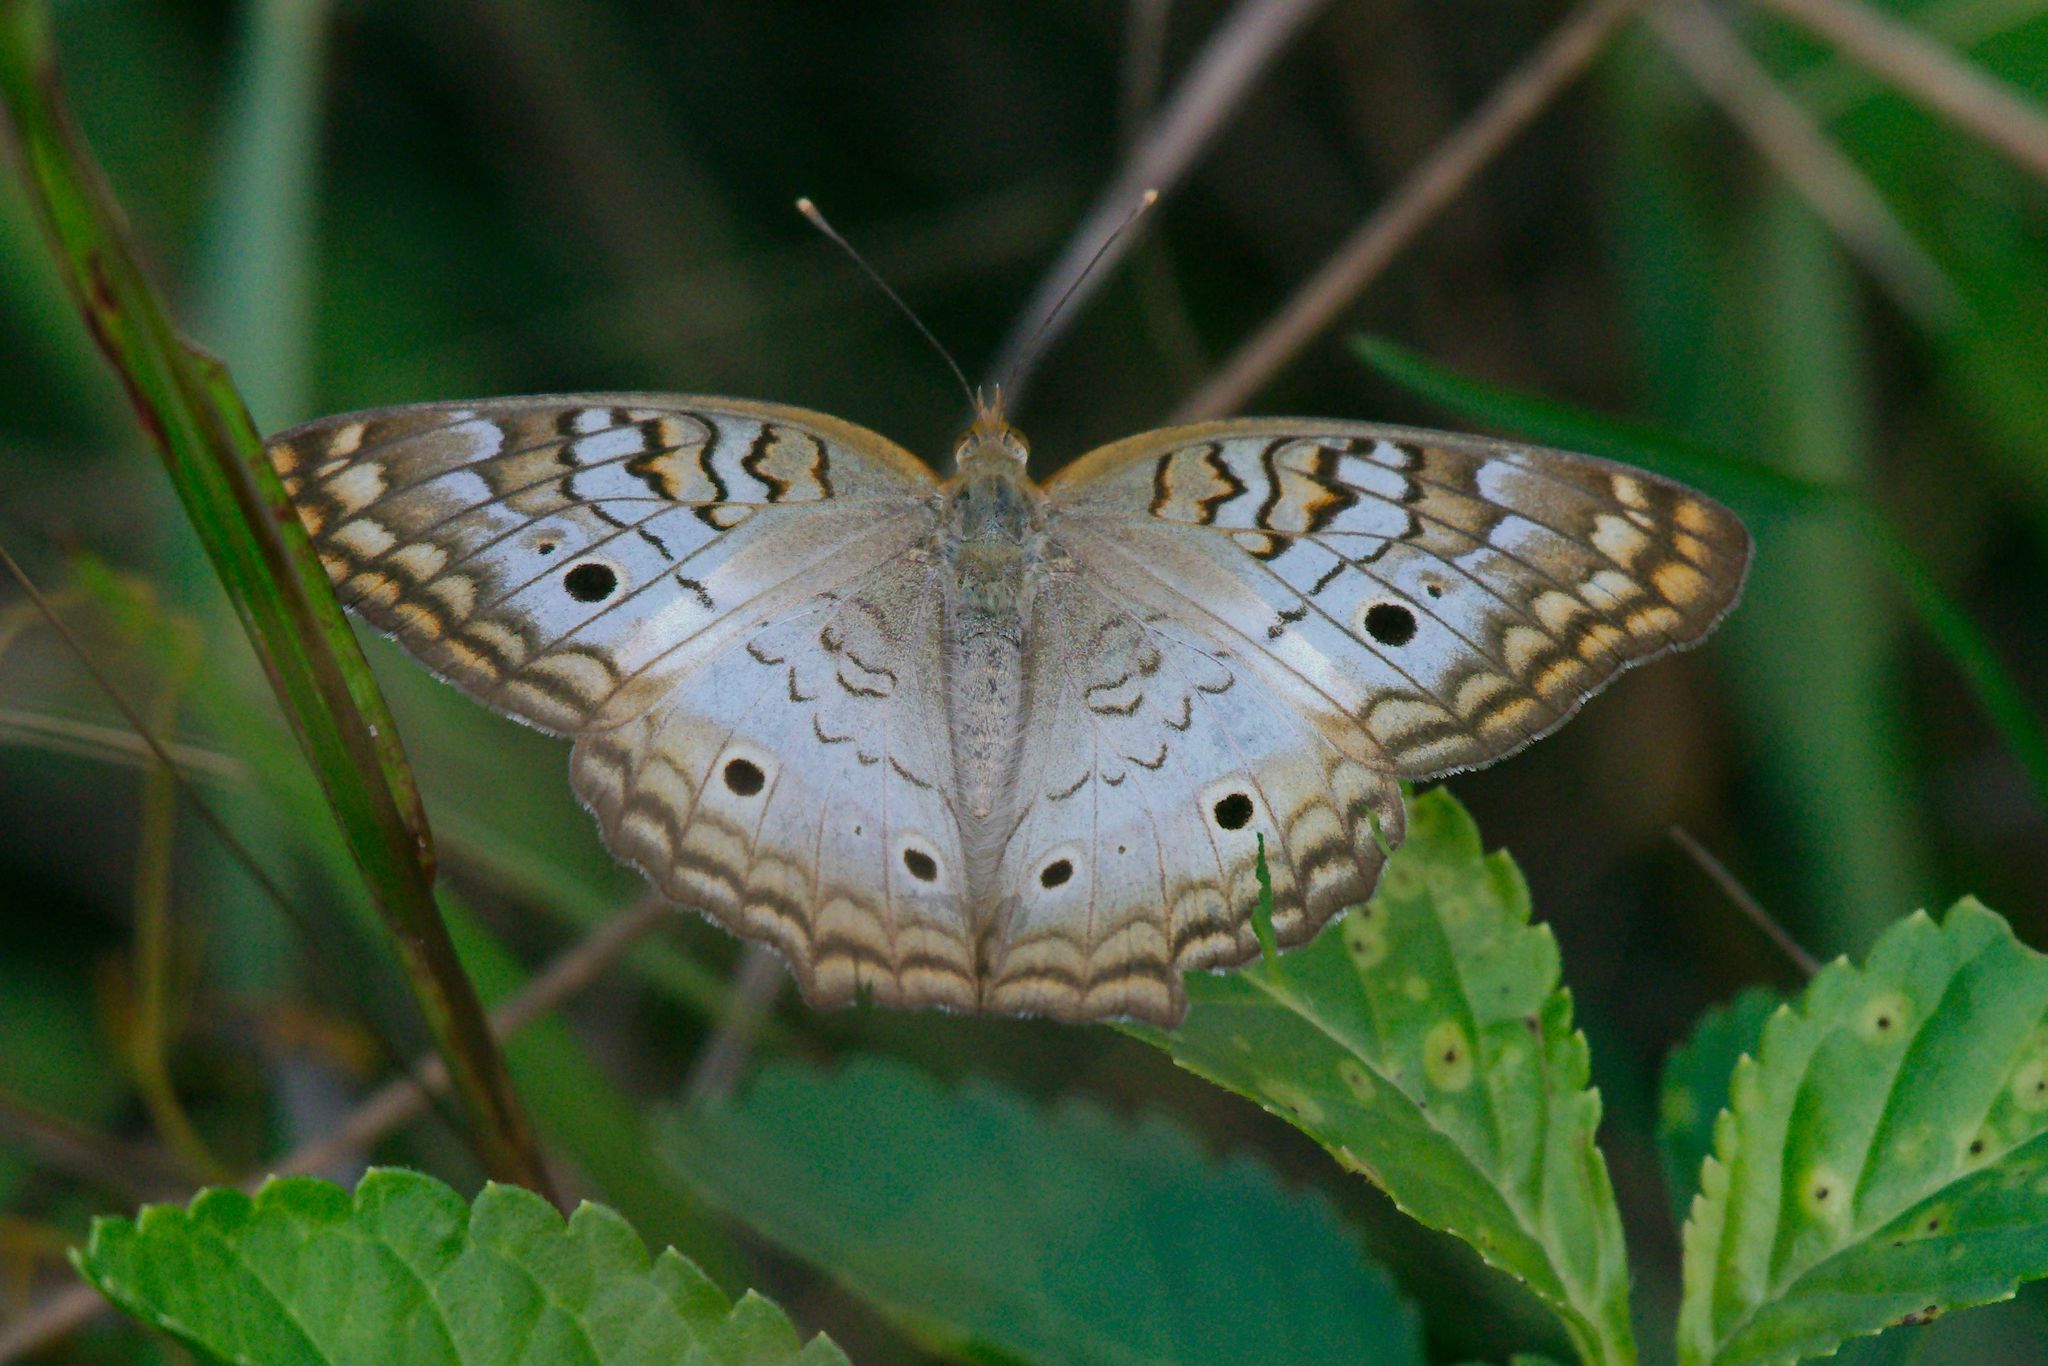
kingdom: Animalia
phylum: Arthropoda
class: Insecta
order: Lepidoptera
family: Nymphalidae
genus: Anartia
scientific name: Anartia jatrophae
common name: White peacock
